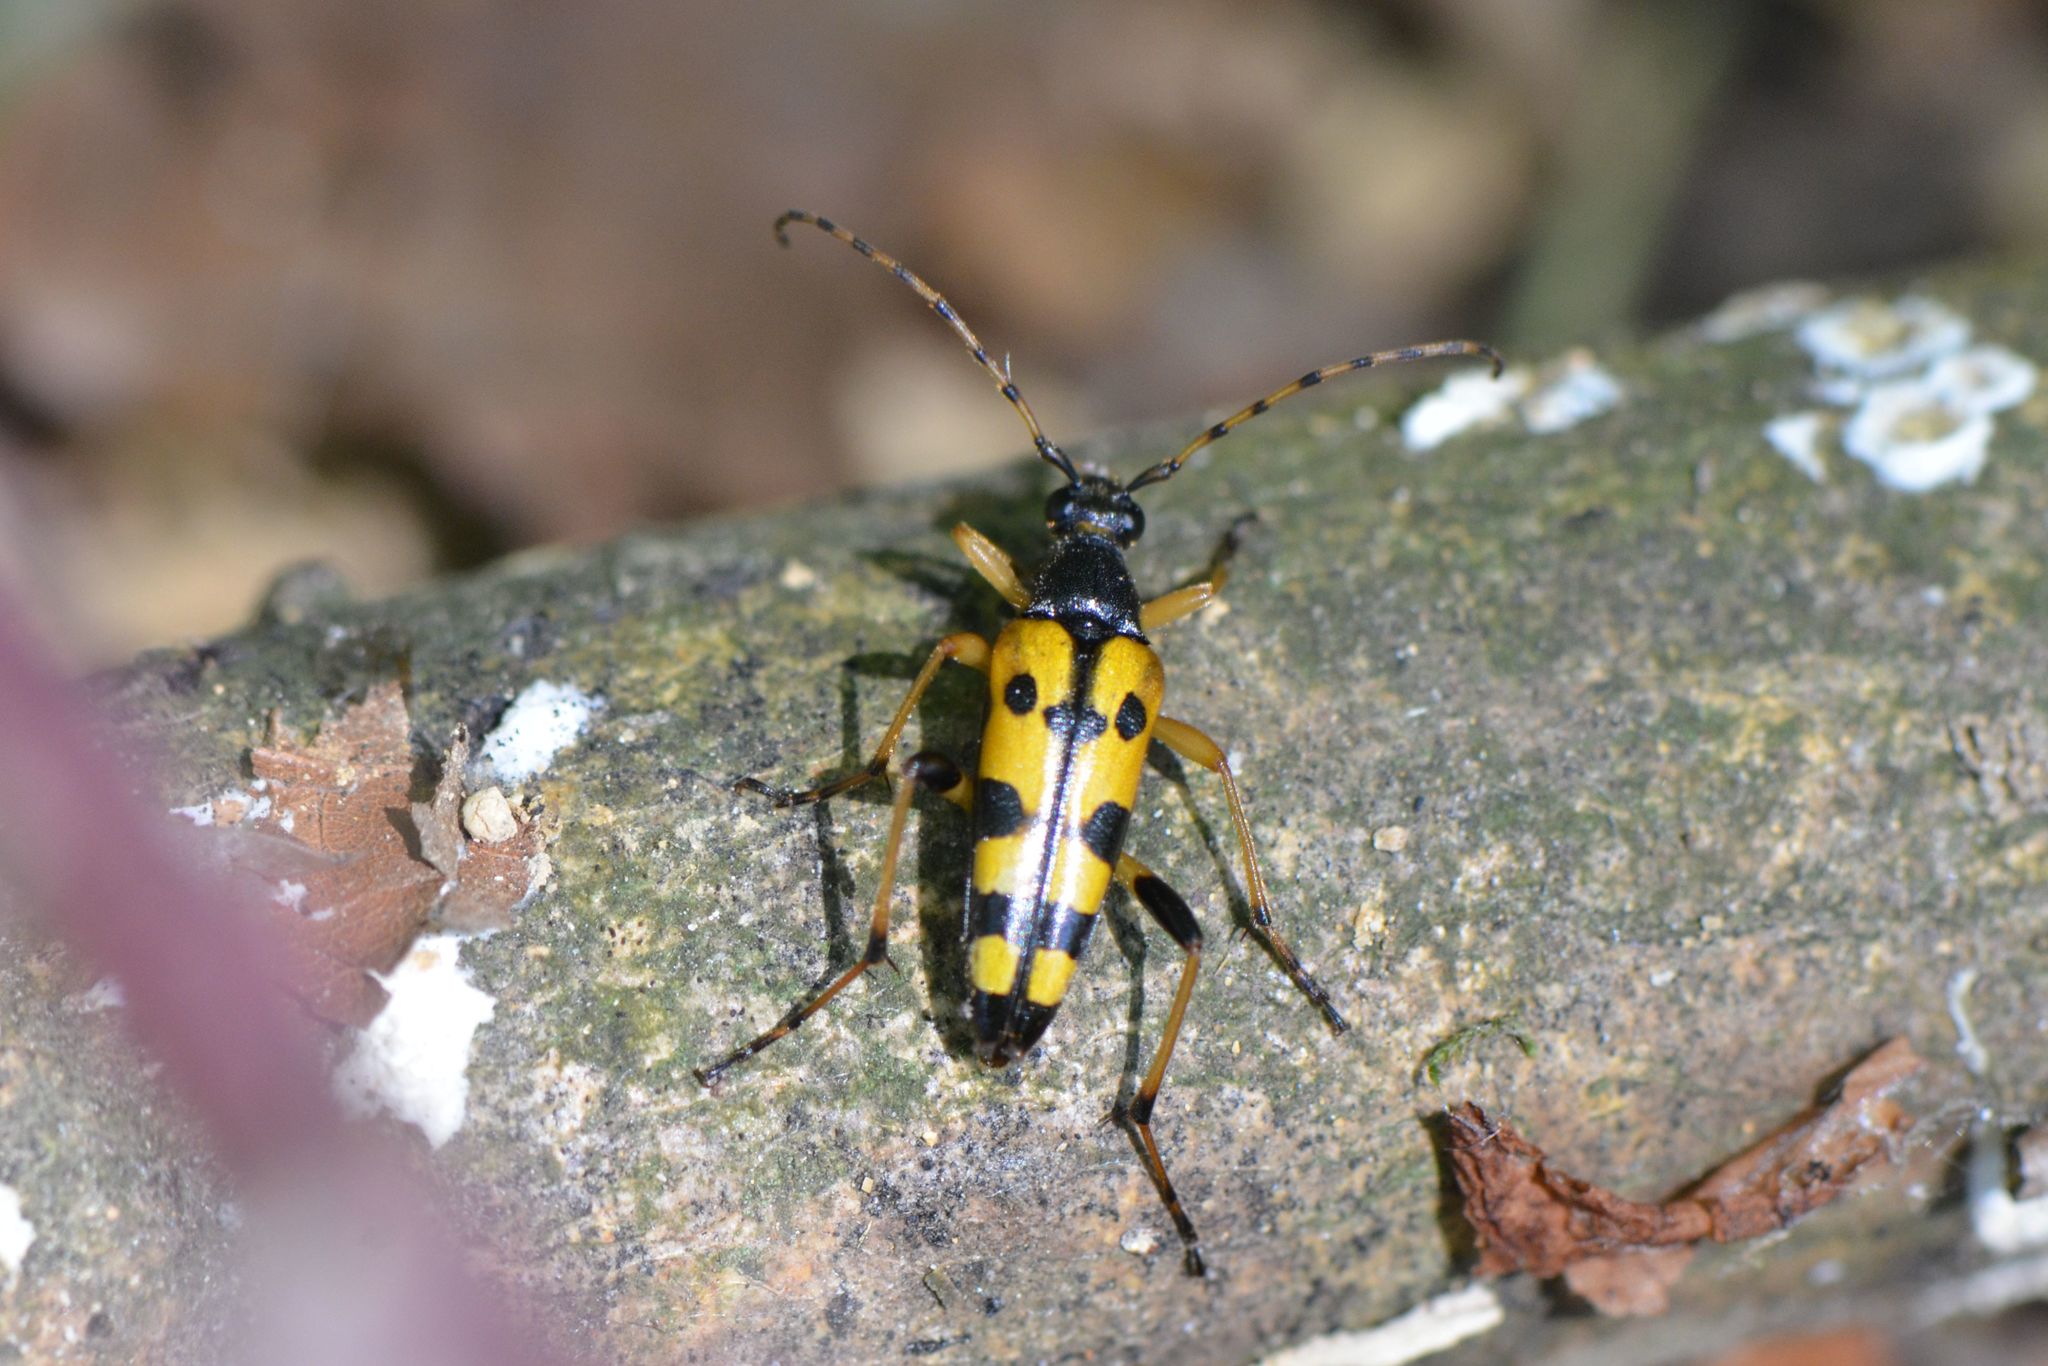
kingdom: Animalia
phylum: Arthropoda
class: Insecta
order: Coleoptera
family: Cerambycidae
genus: Rutpela
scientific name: Rutpela maculata
